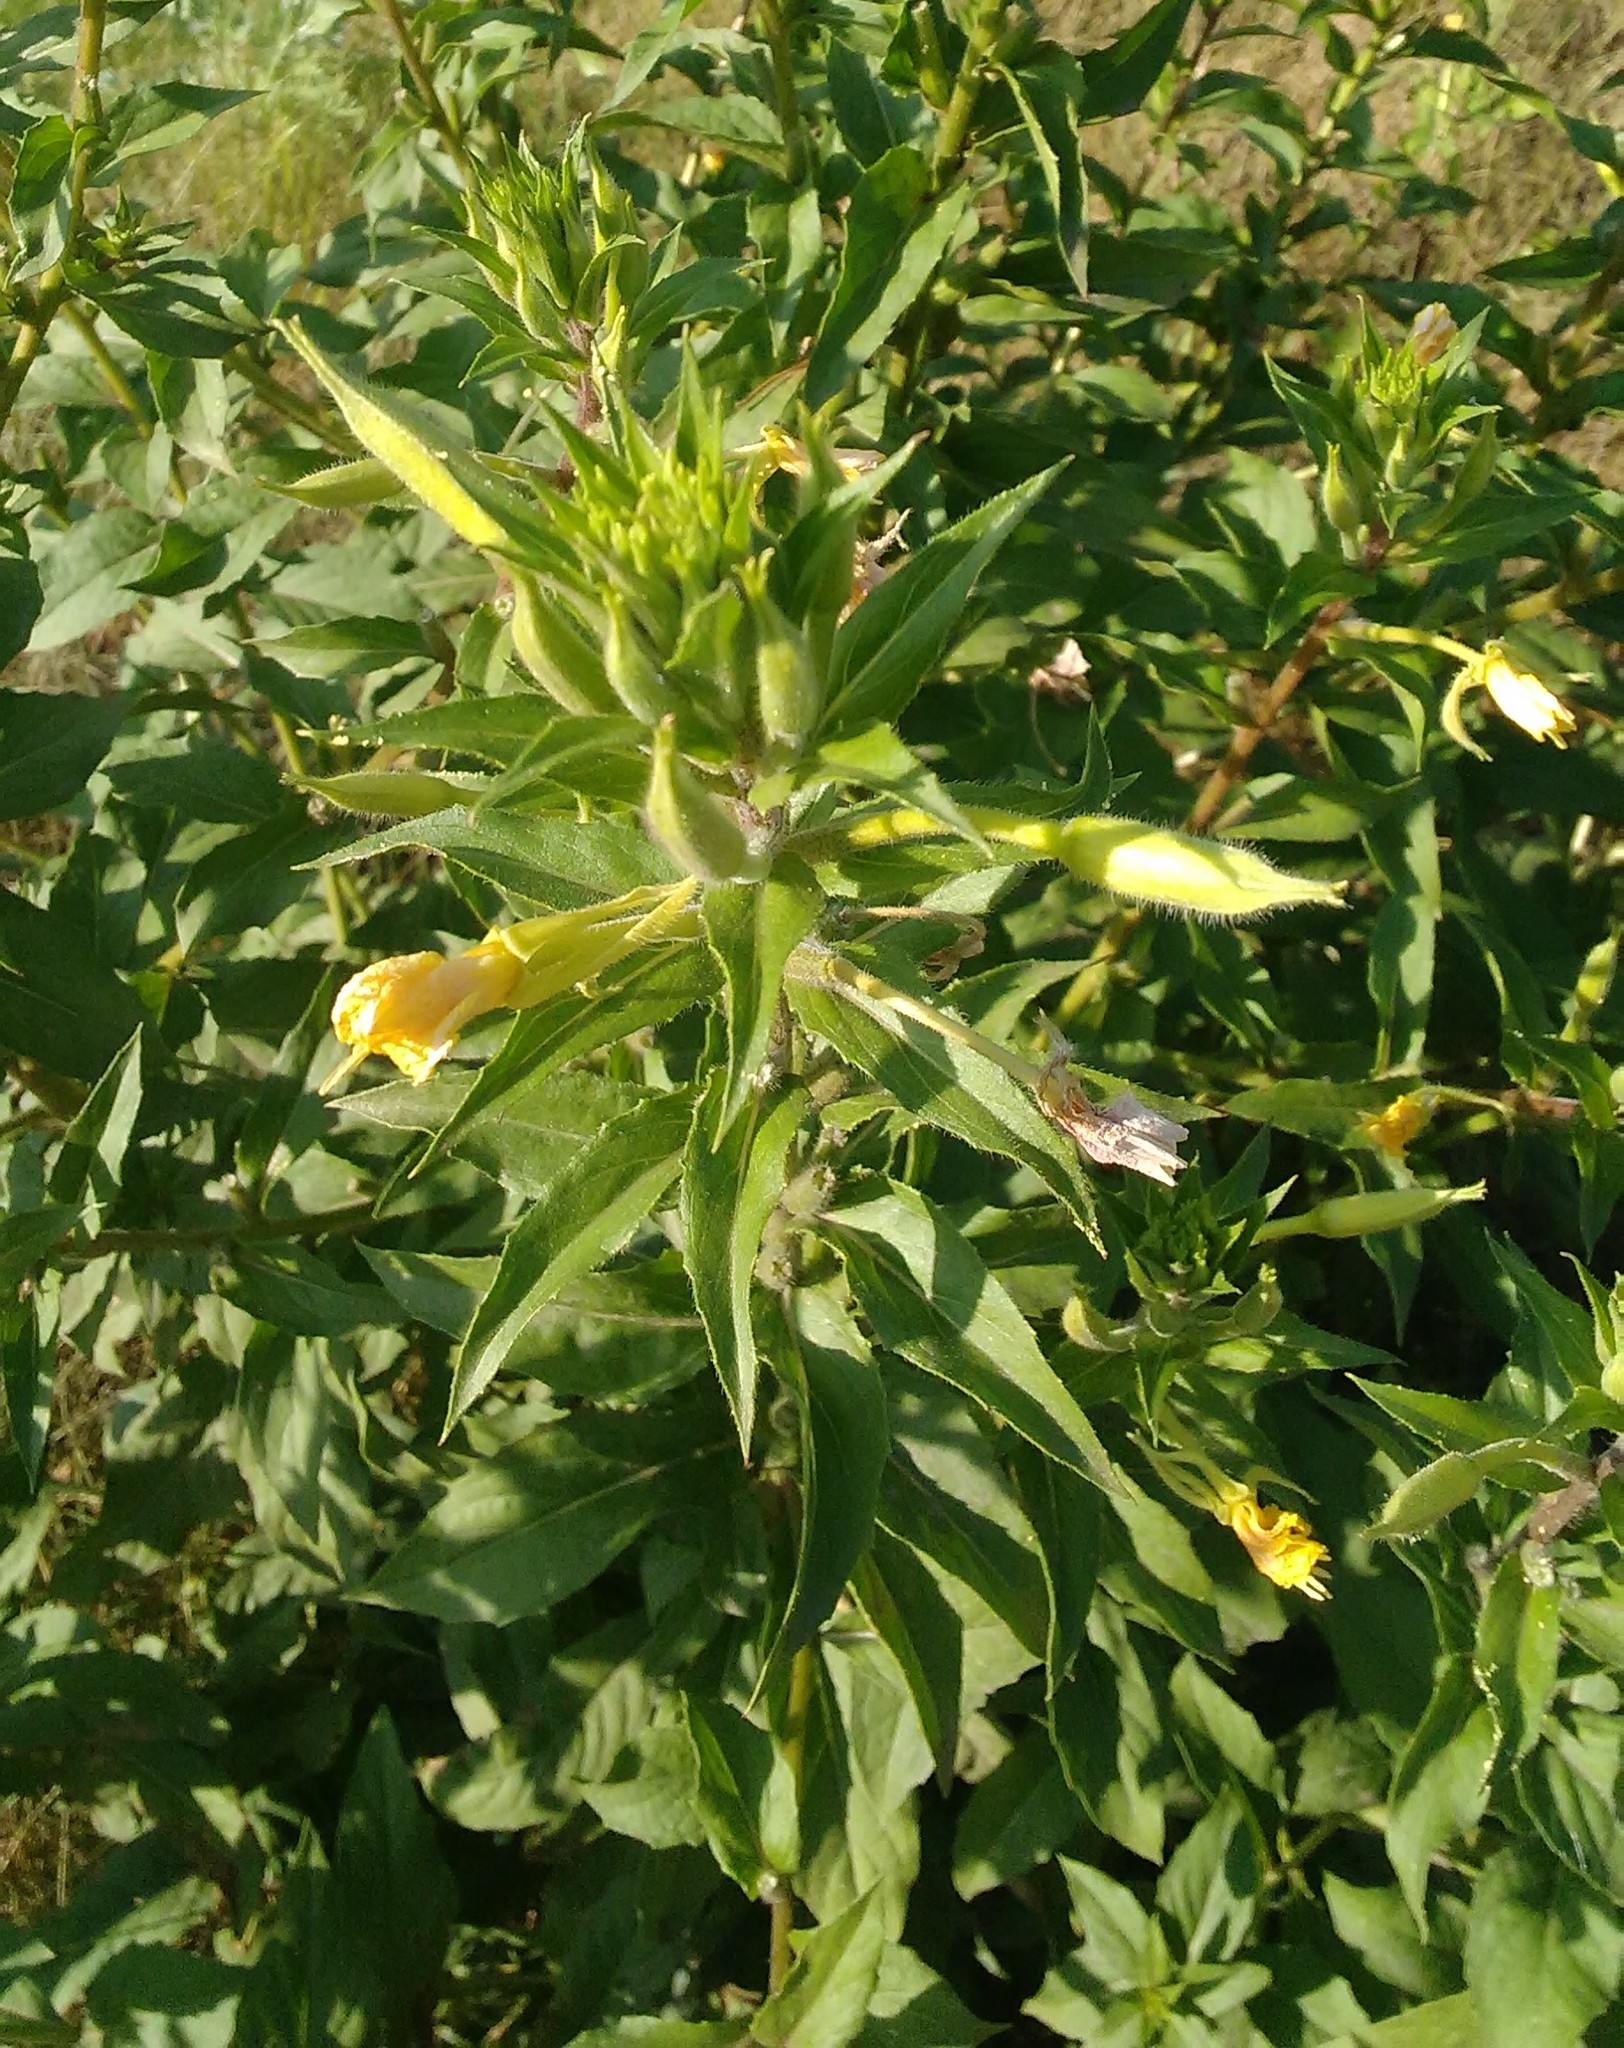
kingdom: Plantae
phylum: Tracheophyta
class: Magnoliopsida
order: Myrtales
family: Onagraceae
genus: Oenothera
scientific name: Oenothera rubricaulis
